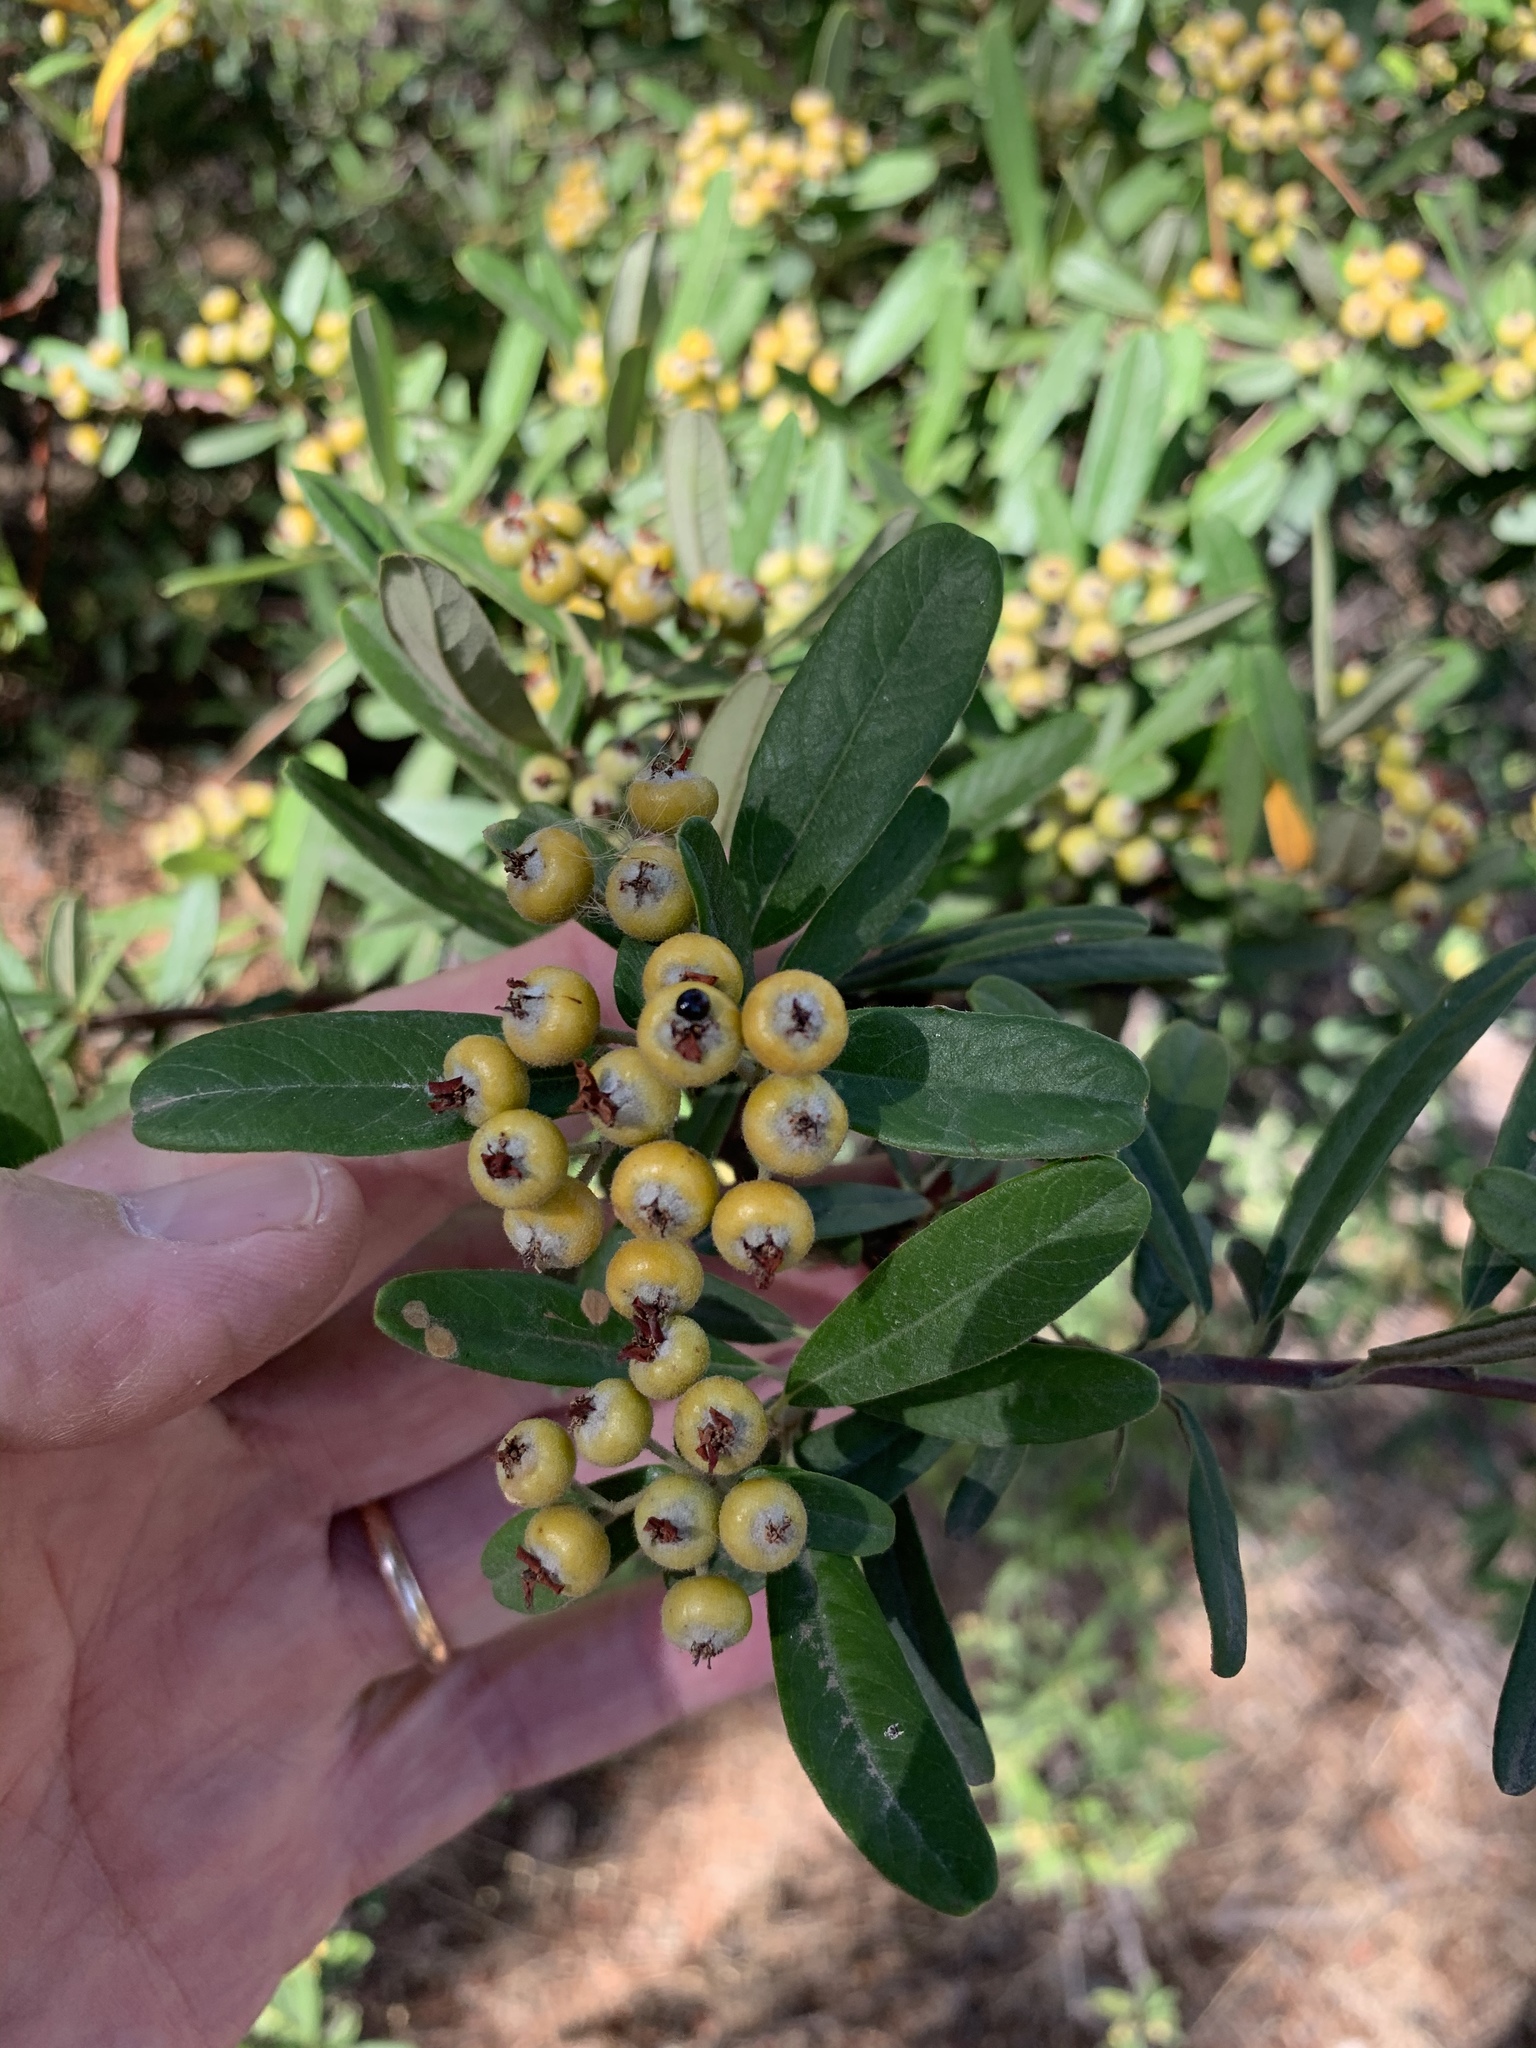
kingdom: Plantae
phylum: Tracheophyta
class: Magnoliopsida
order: Rosales
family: Rosaceae
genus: Pyracantha
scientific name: Pyracantha angustifolia
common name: Narrowleaf firethorn
